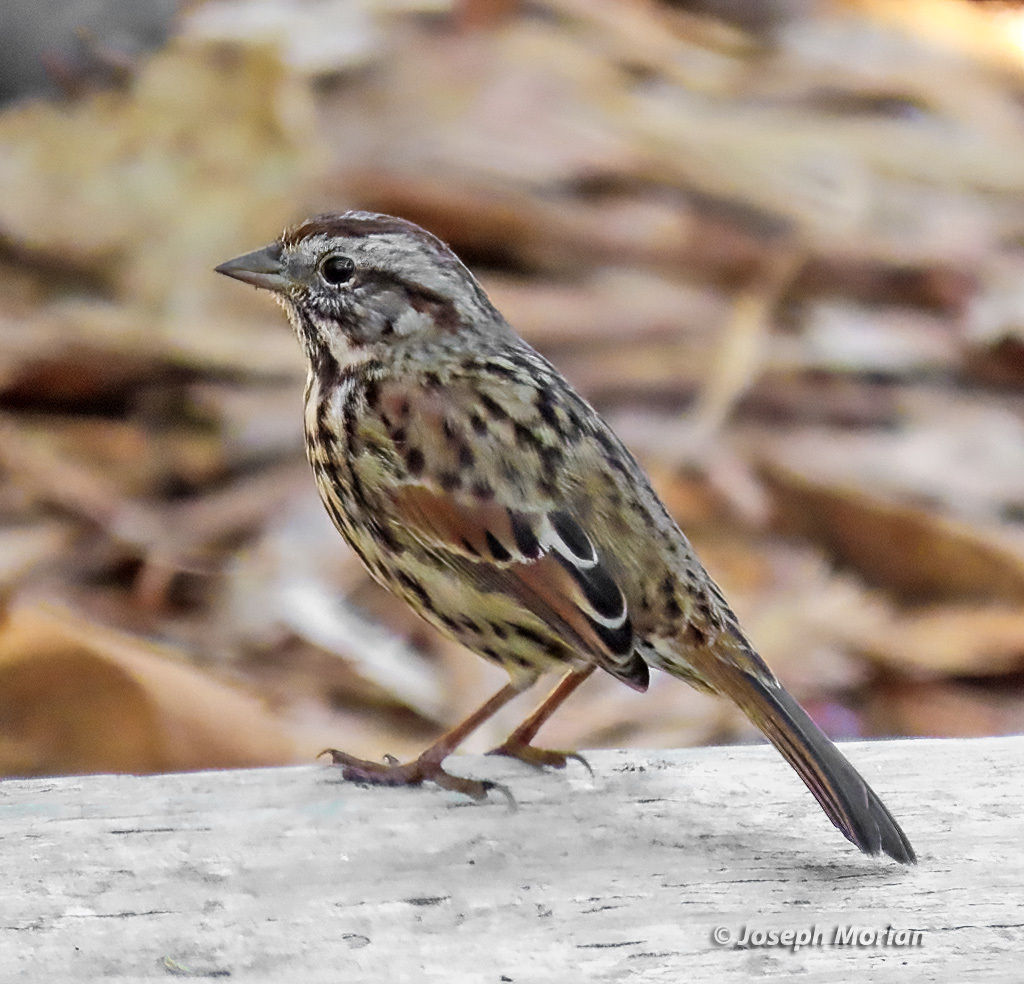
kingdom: Animalia
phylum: Chordata
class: Aves
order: Passeriformes
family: Passerellidae
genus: Melospiza
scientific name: Melospiza melodia
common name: Song sparrow
